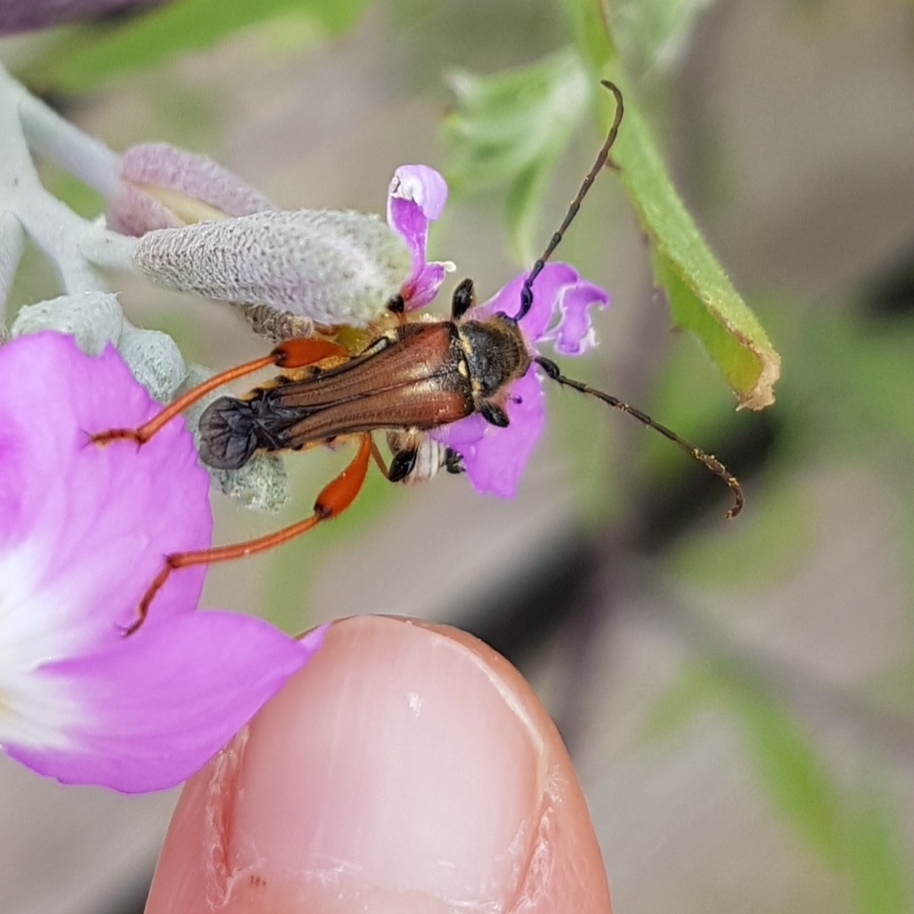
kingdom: Animalia
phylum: Arthropoda
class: Insecta
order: Coleoptera
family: Cerambycidae
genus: Stenopterus
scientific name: Stenopterus rufus
